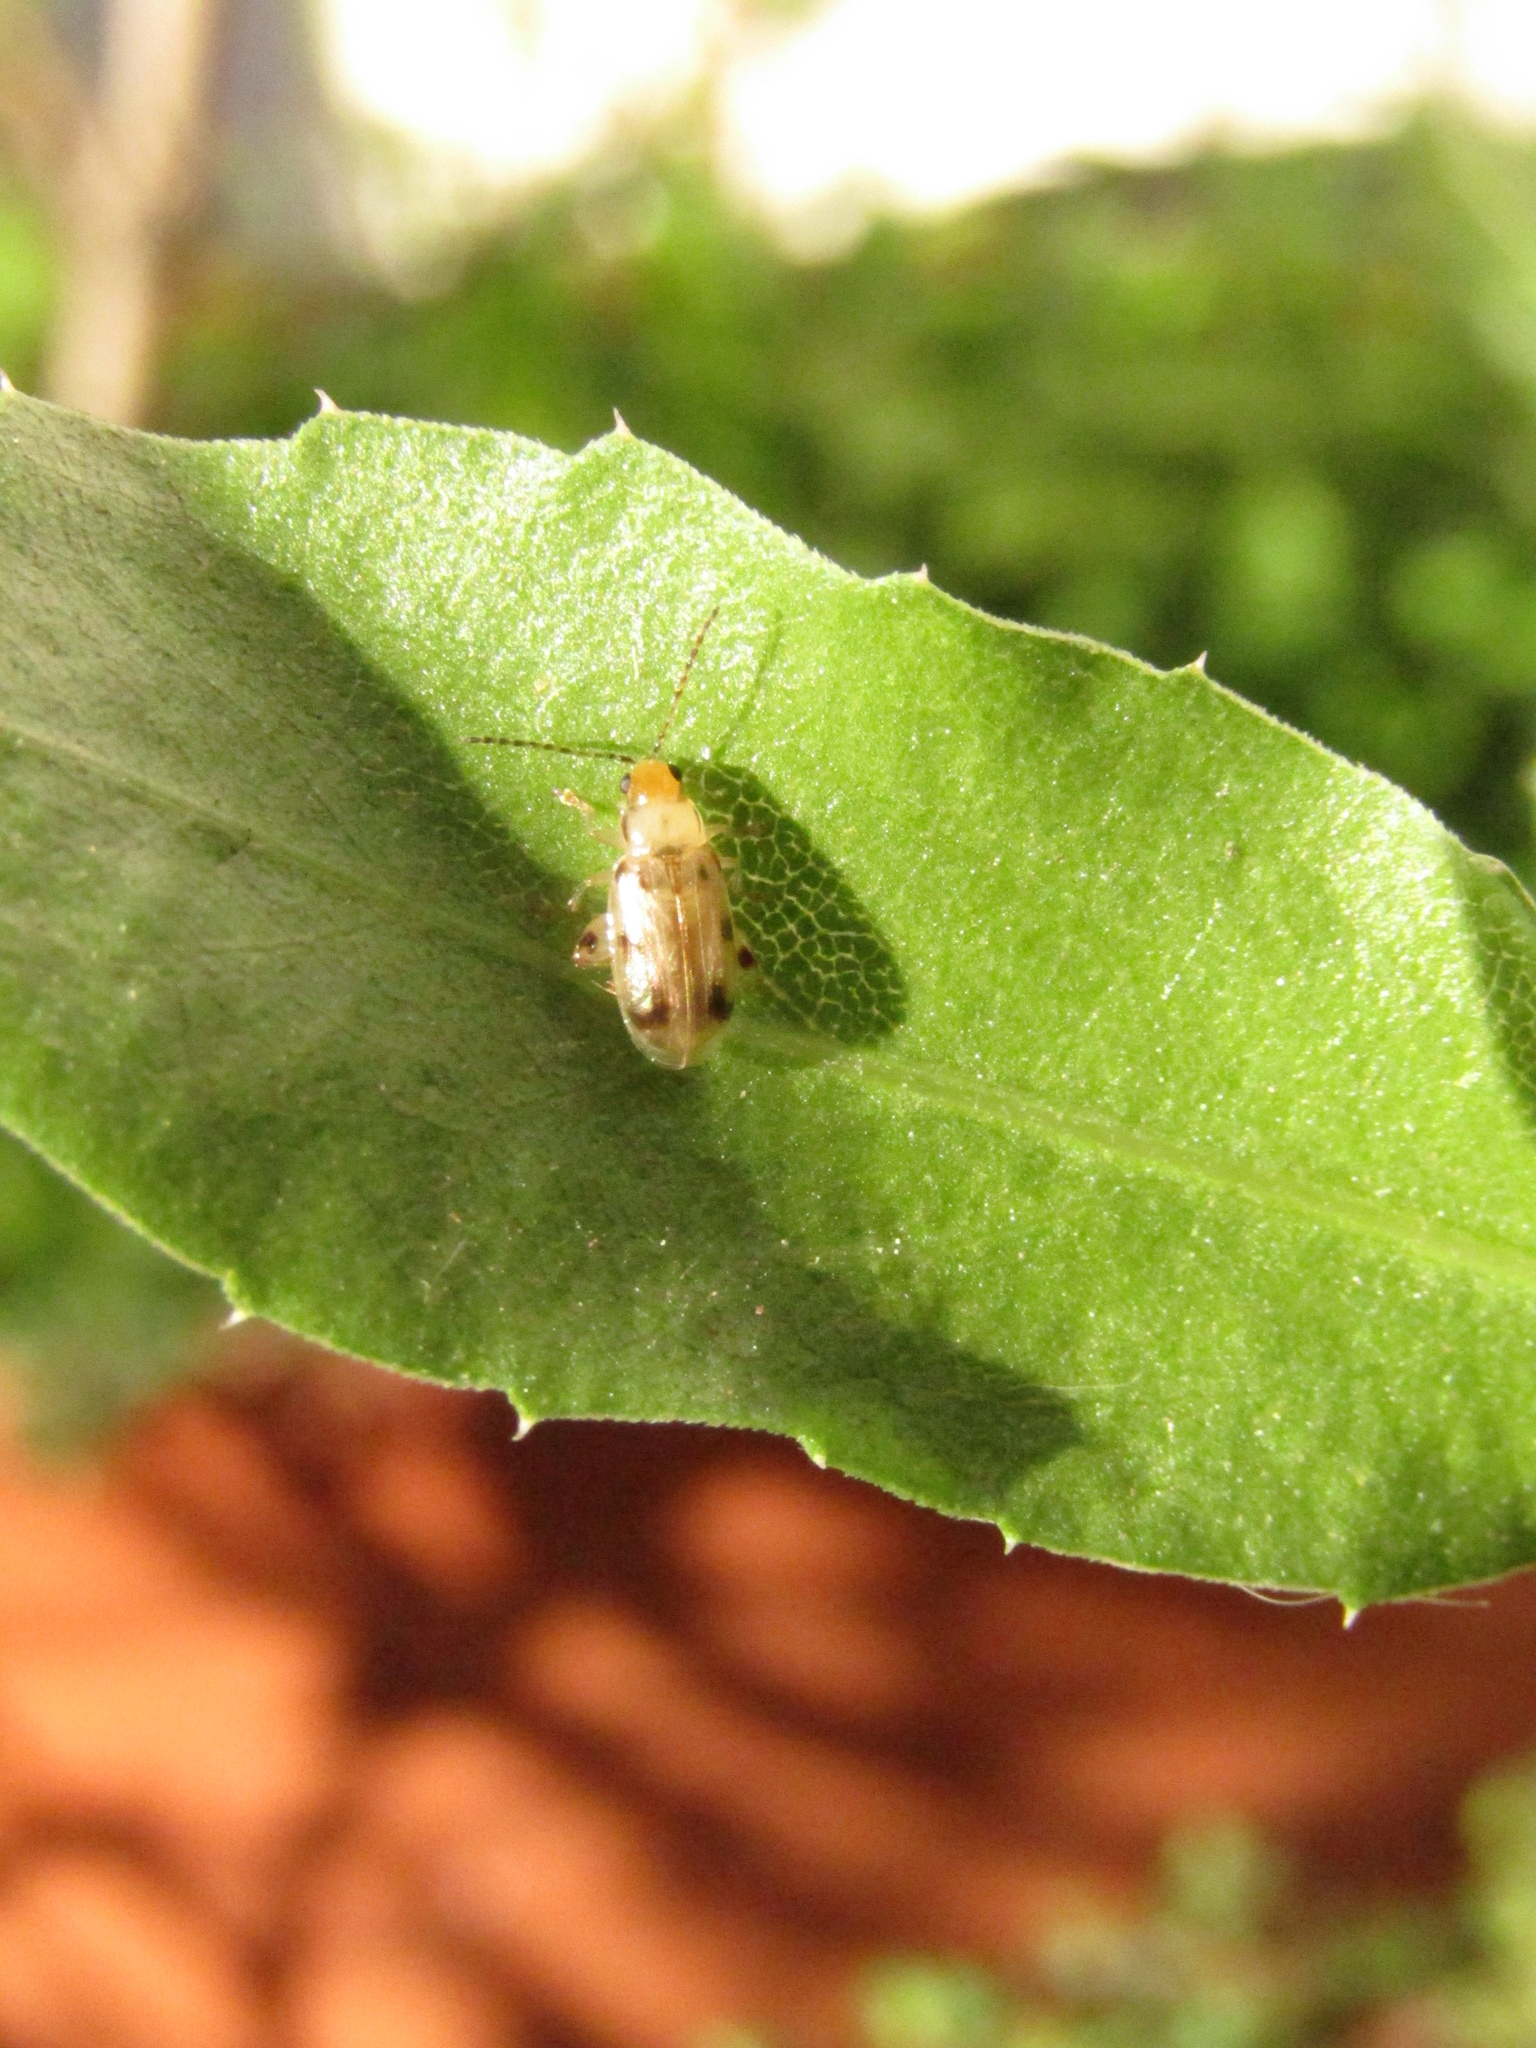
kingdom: Animalia
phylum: Arthropoda
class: Insecta
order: Coleoptera
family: Chrysomelidae
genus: Systena
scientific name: Systena
